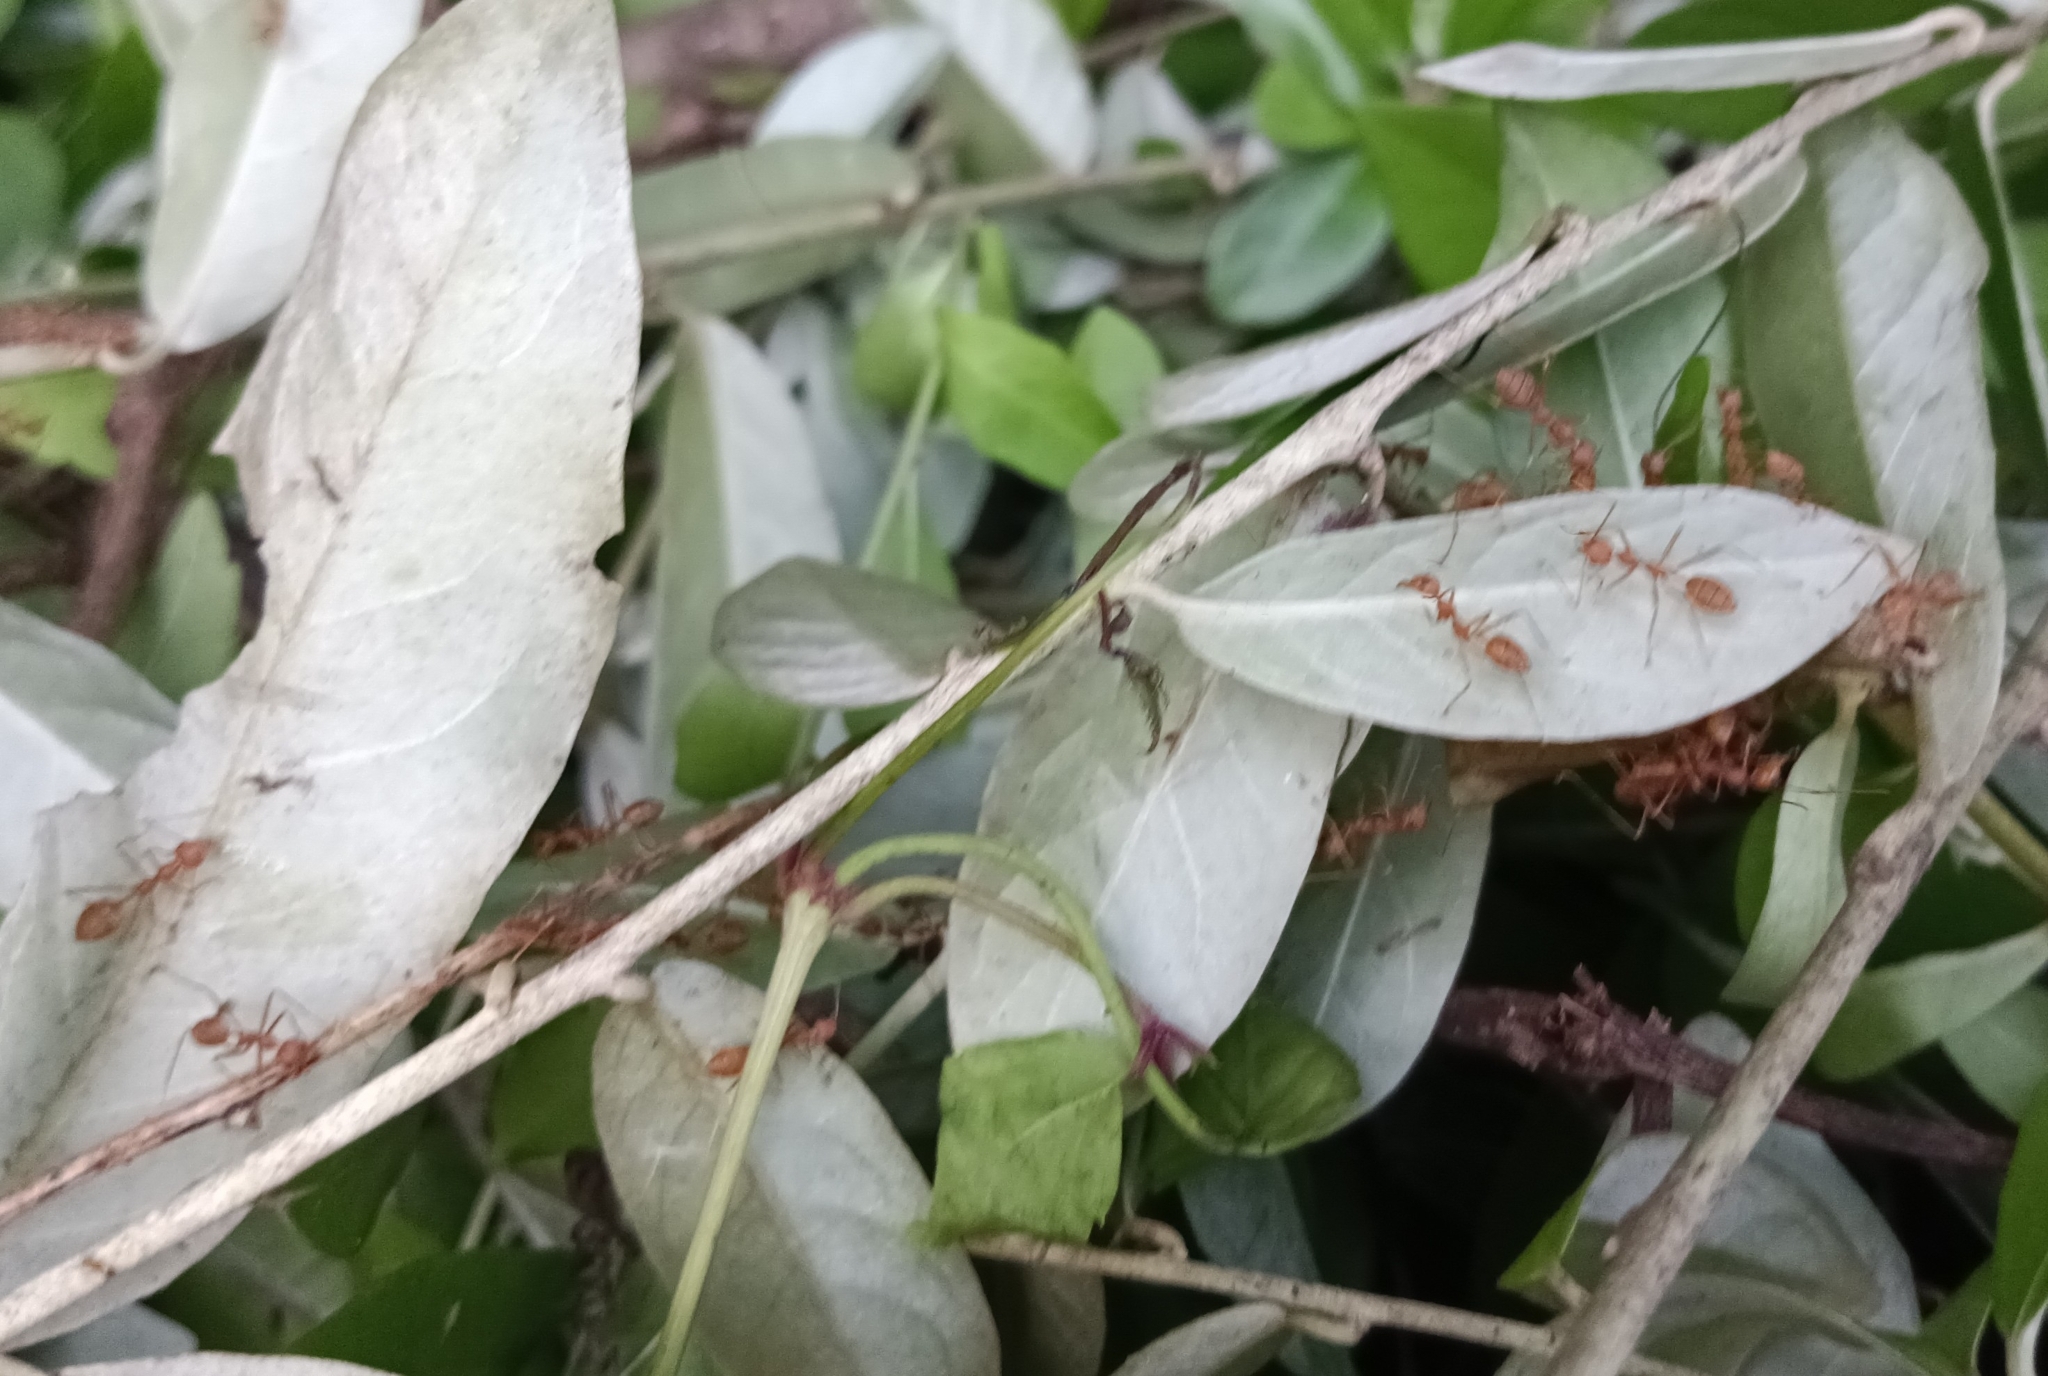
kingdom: Animalia
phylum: Arthropoda
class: Insecta
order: Hymenoptera
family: Formicidae
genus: Oecophylla
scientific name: Oecophylla smaragdina
